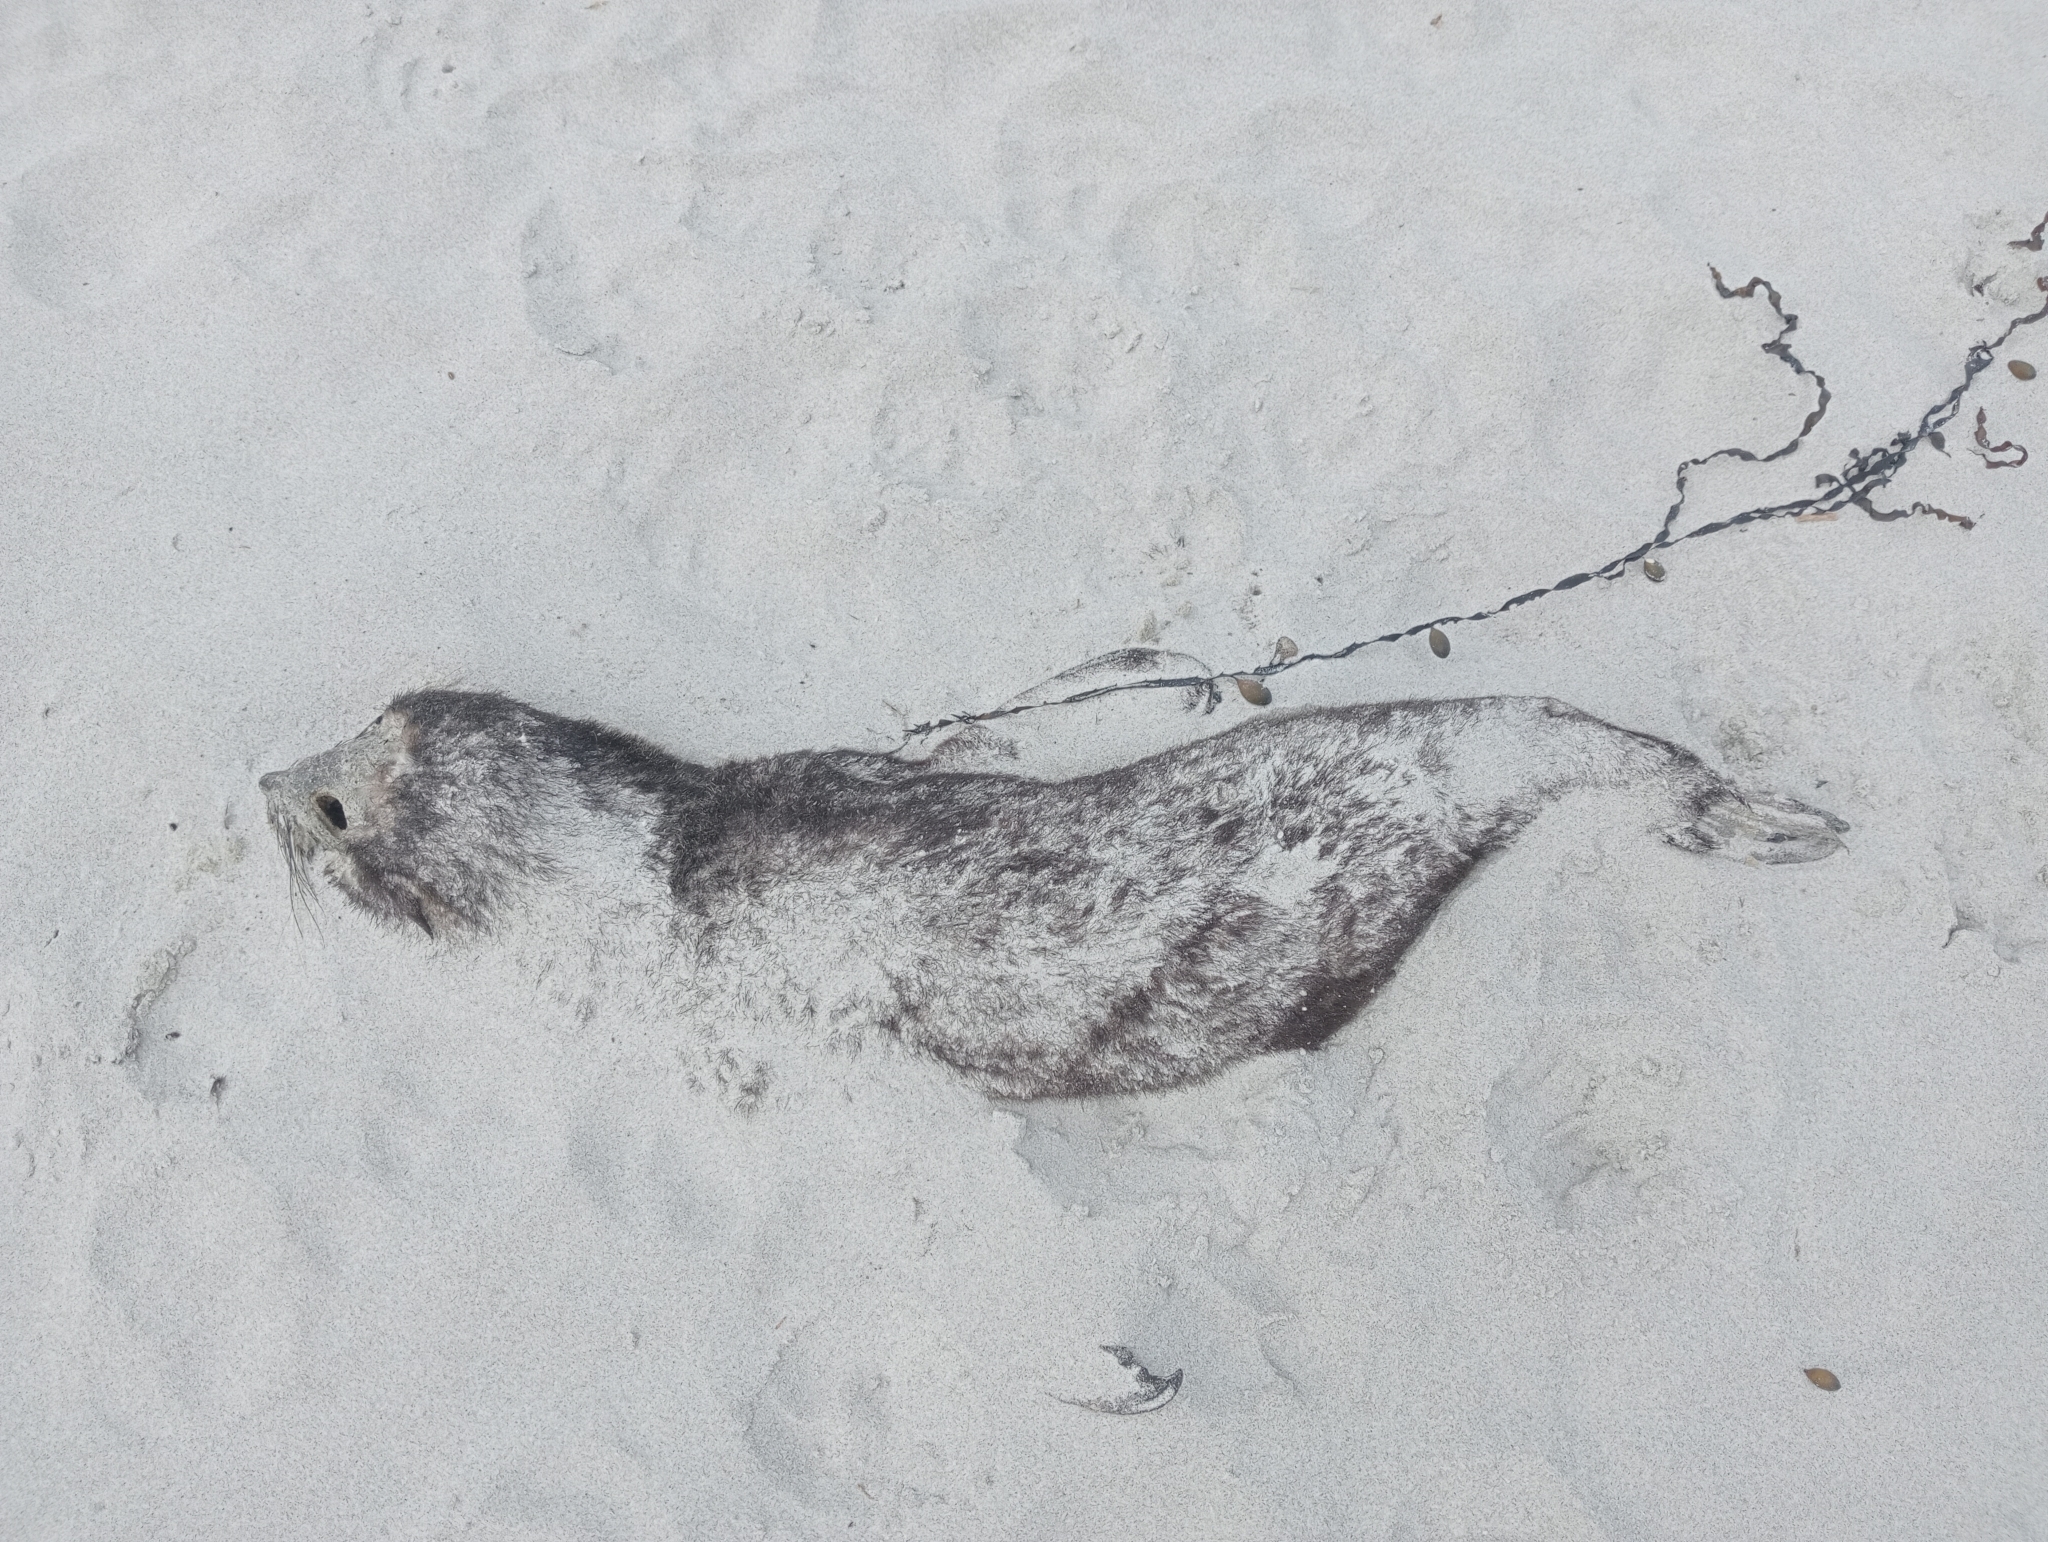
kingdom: Animalia
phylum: Chordata
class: Mammalia
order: Carnivora
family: Otariidae
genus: Arctocephalus
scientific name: Arctocephalus forsteri
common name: New zealand fur seal
